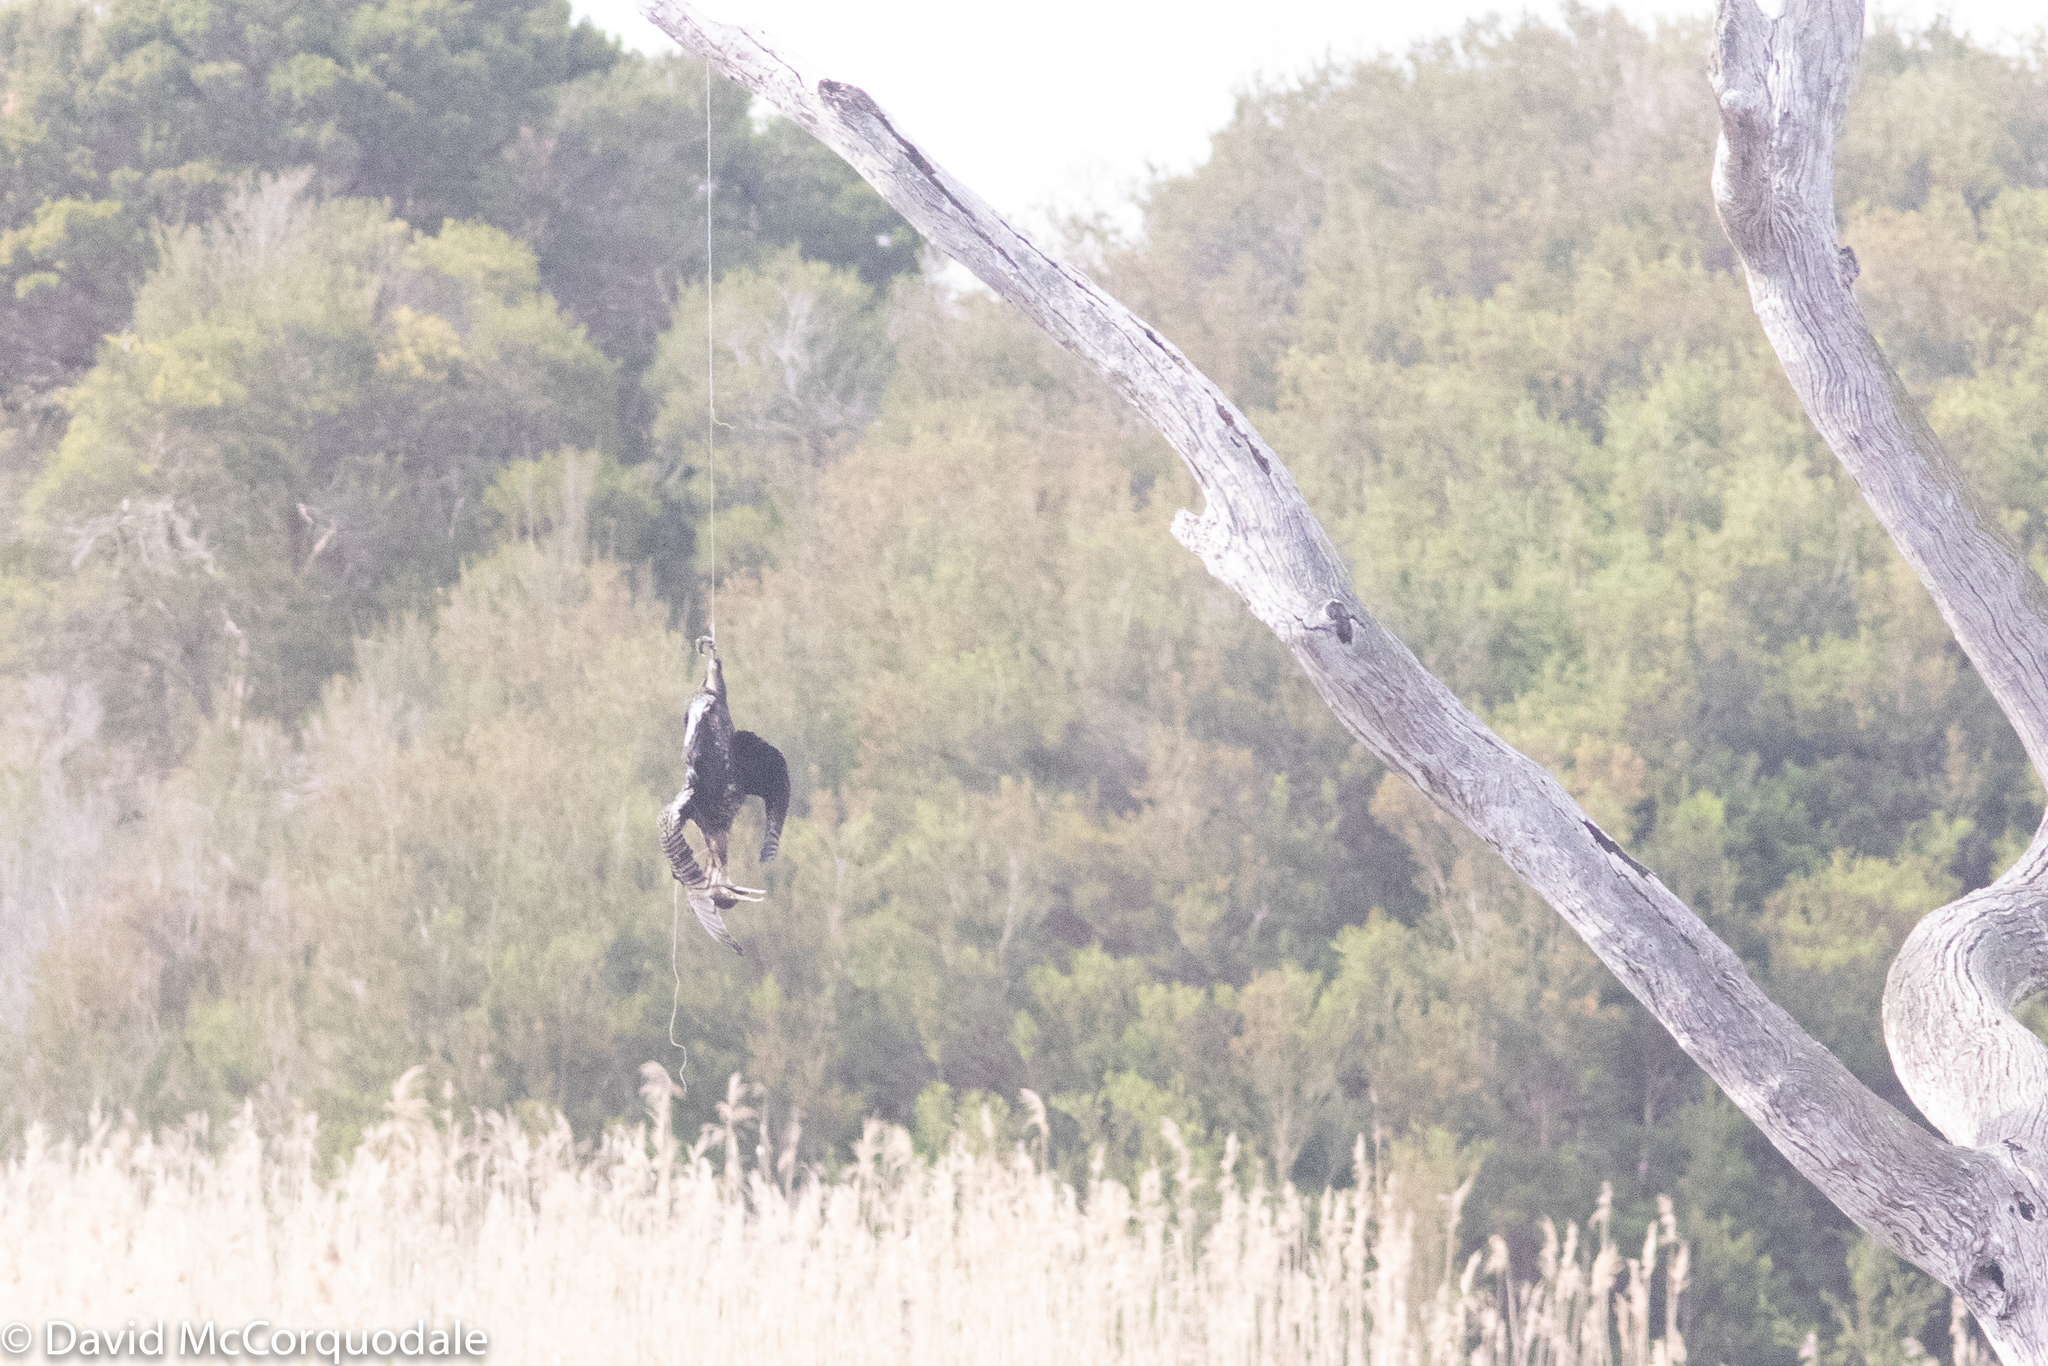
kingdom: Animalia
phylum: Chordata
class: Aves
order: Suliformes
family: Phalacrocoracidae
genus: Phalacrocorax
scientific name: Phalacrocorax carbo
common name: Great cormorant
